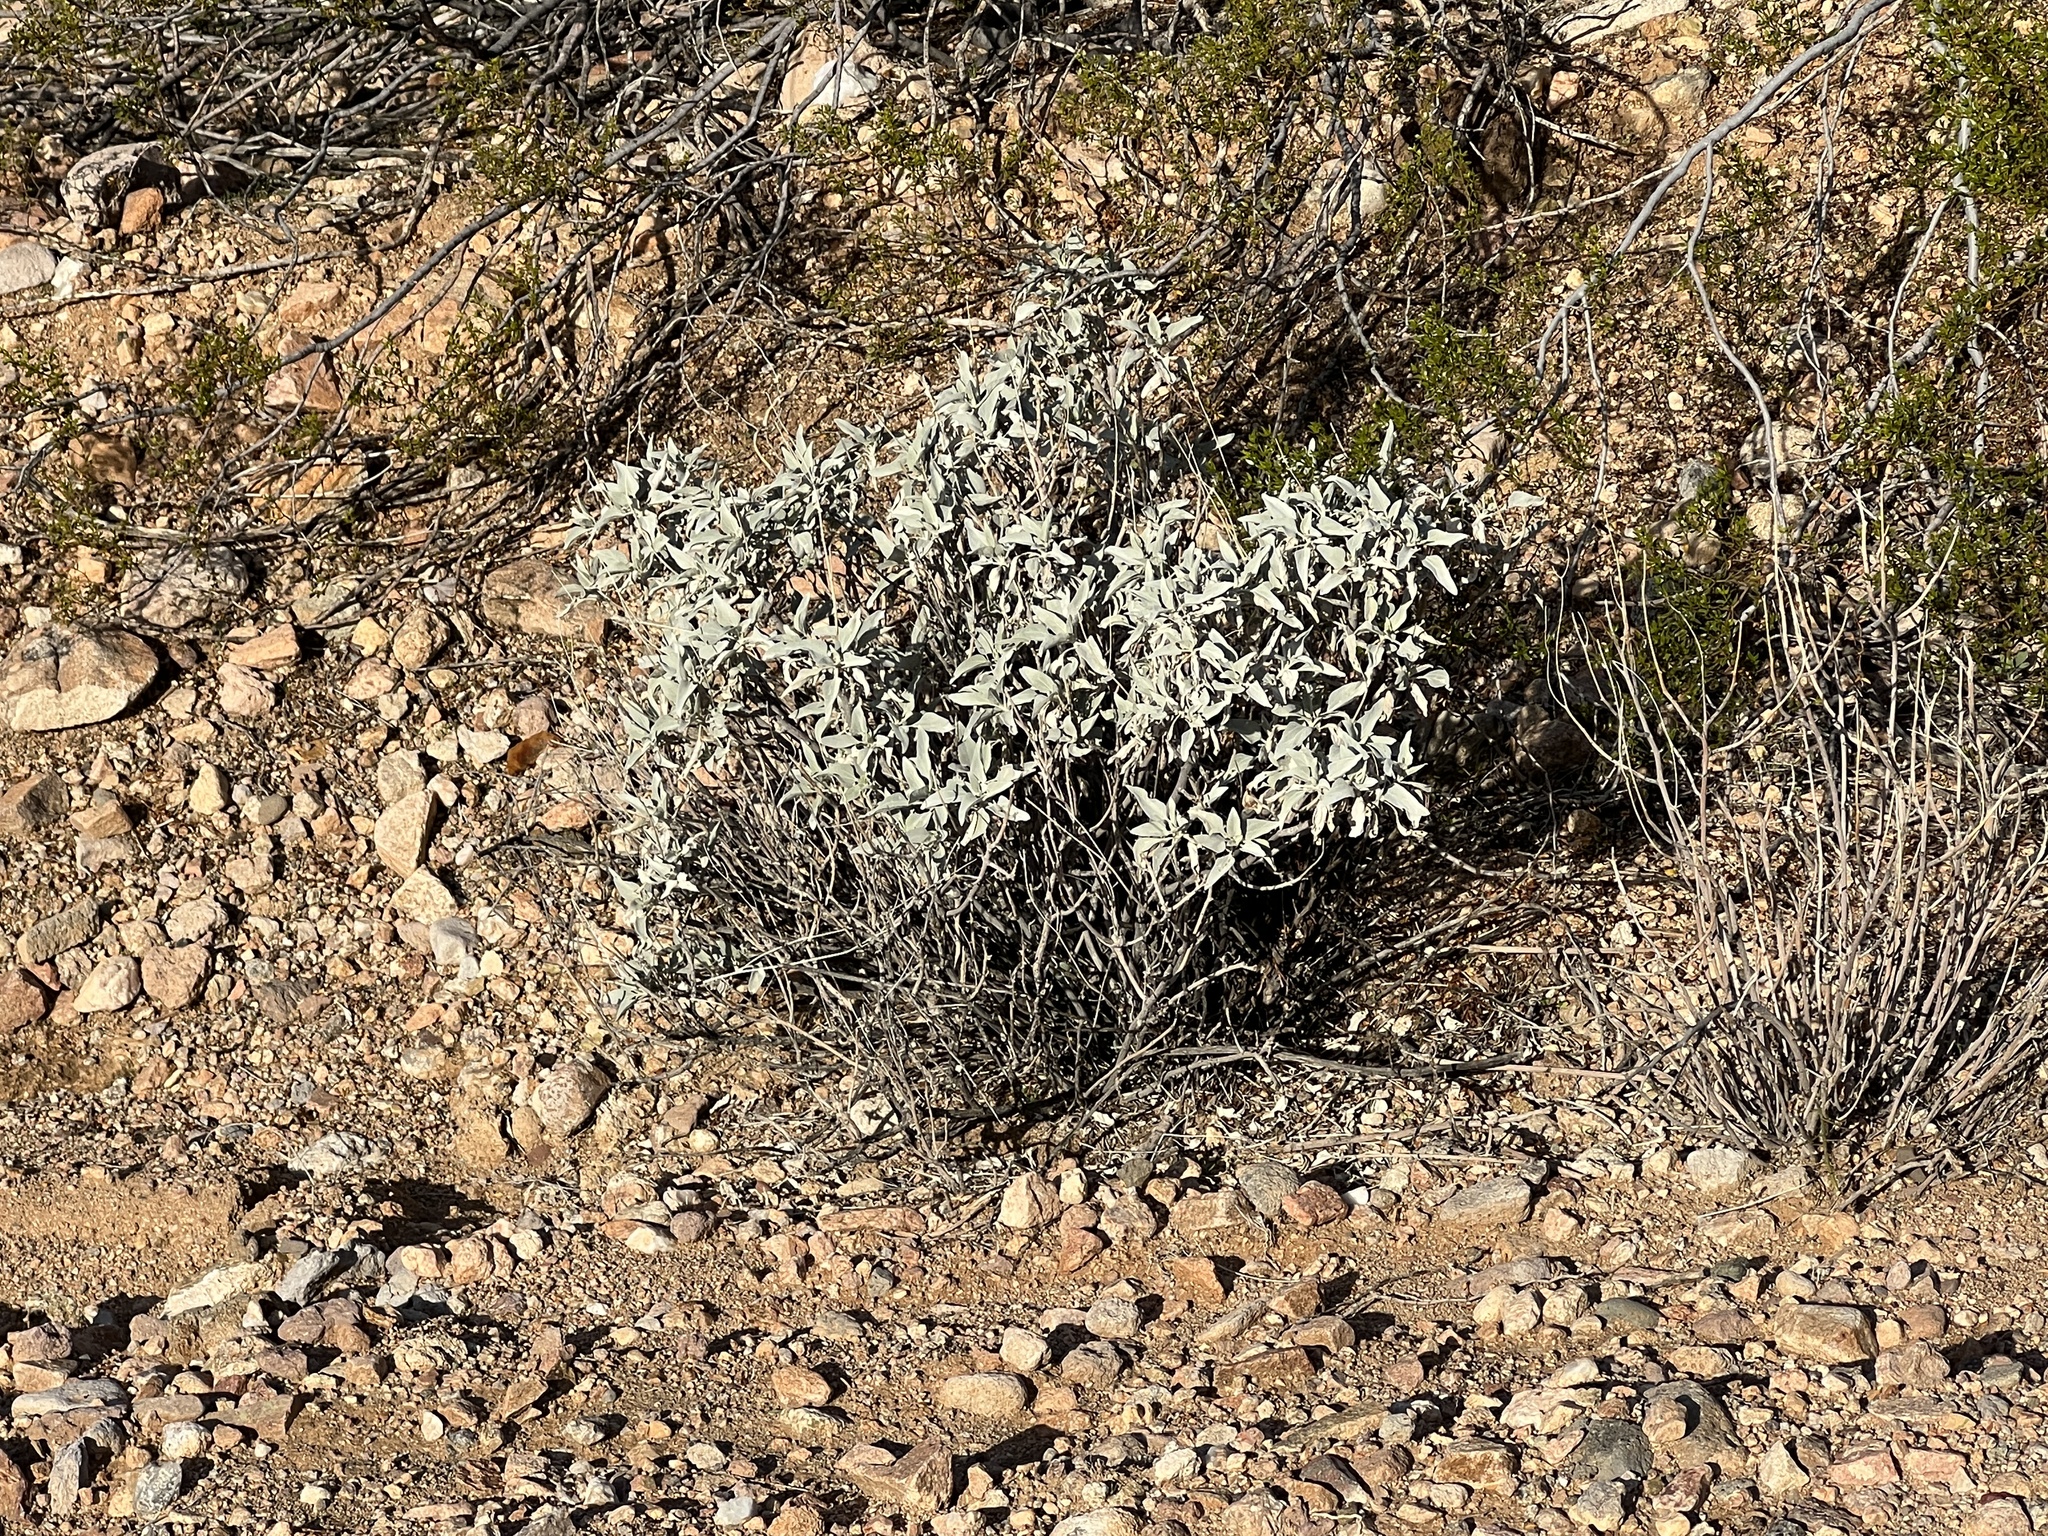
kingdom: Plantae
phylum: Tracheophyta
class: Magnoliopsida
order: Asterales
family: Asteraceae
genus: Encelia
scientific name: Encelia farinosa
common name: Brittlebush
